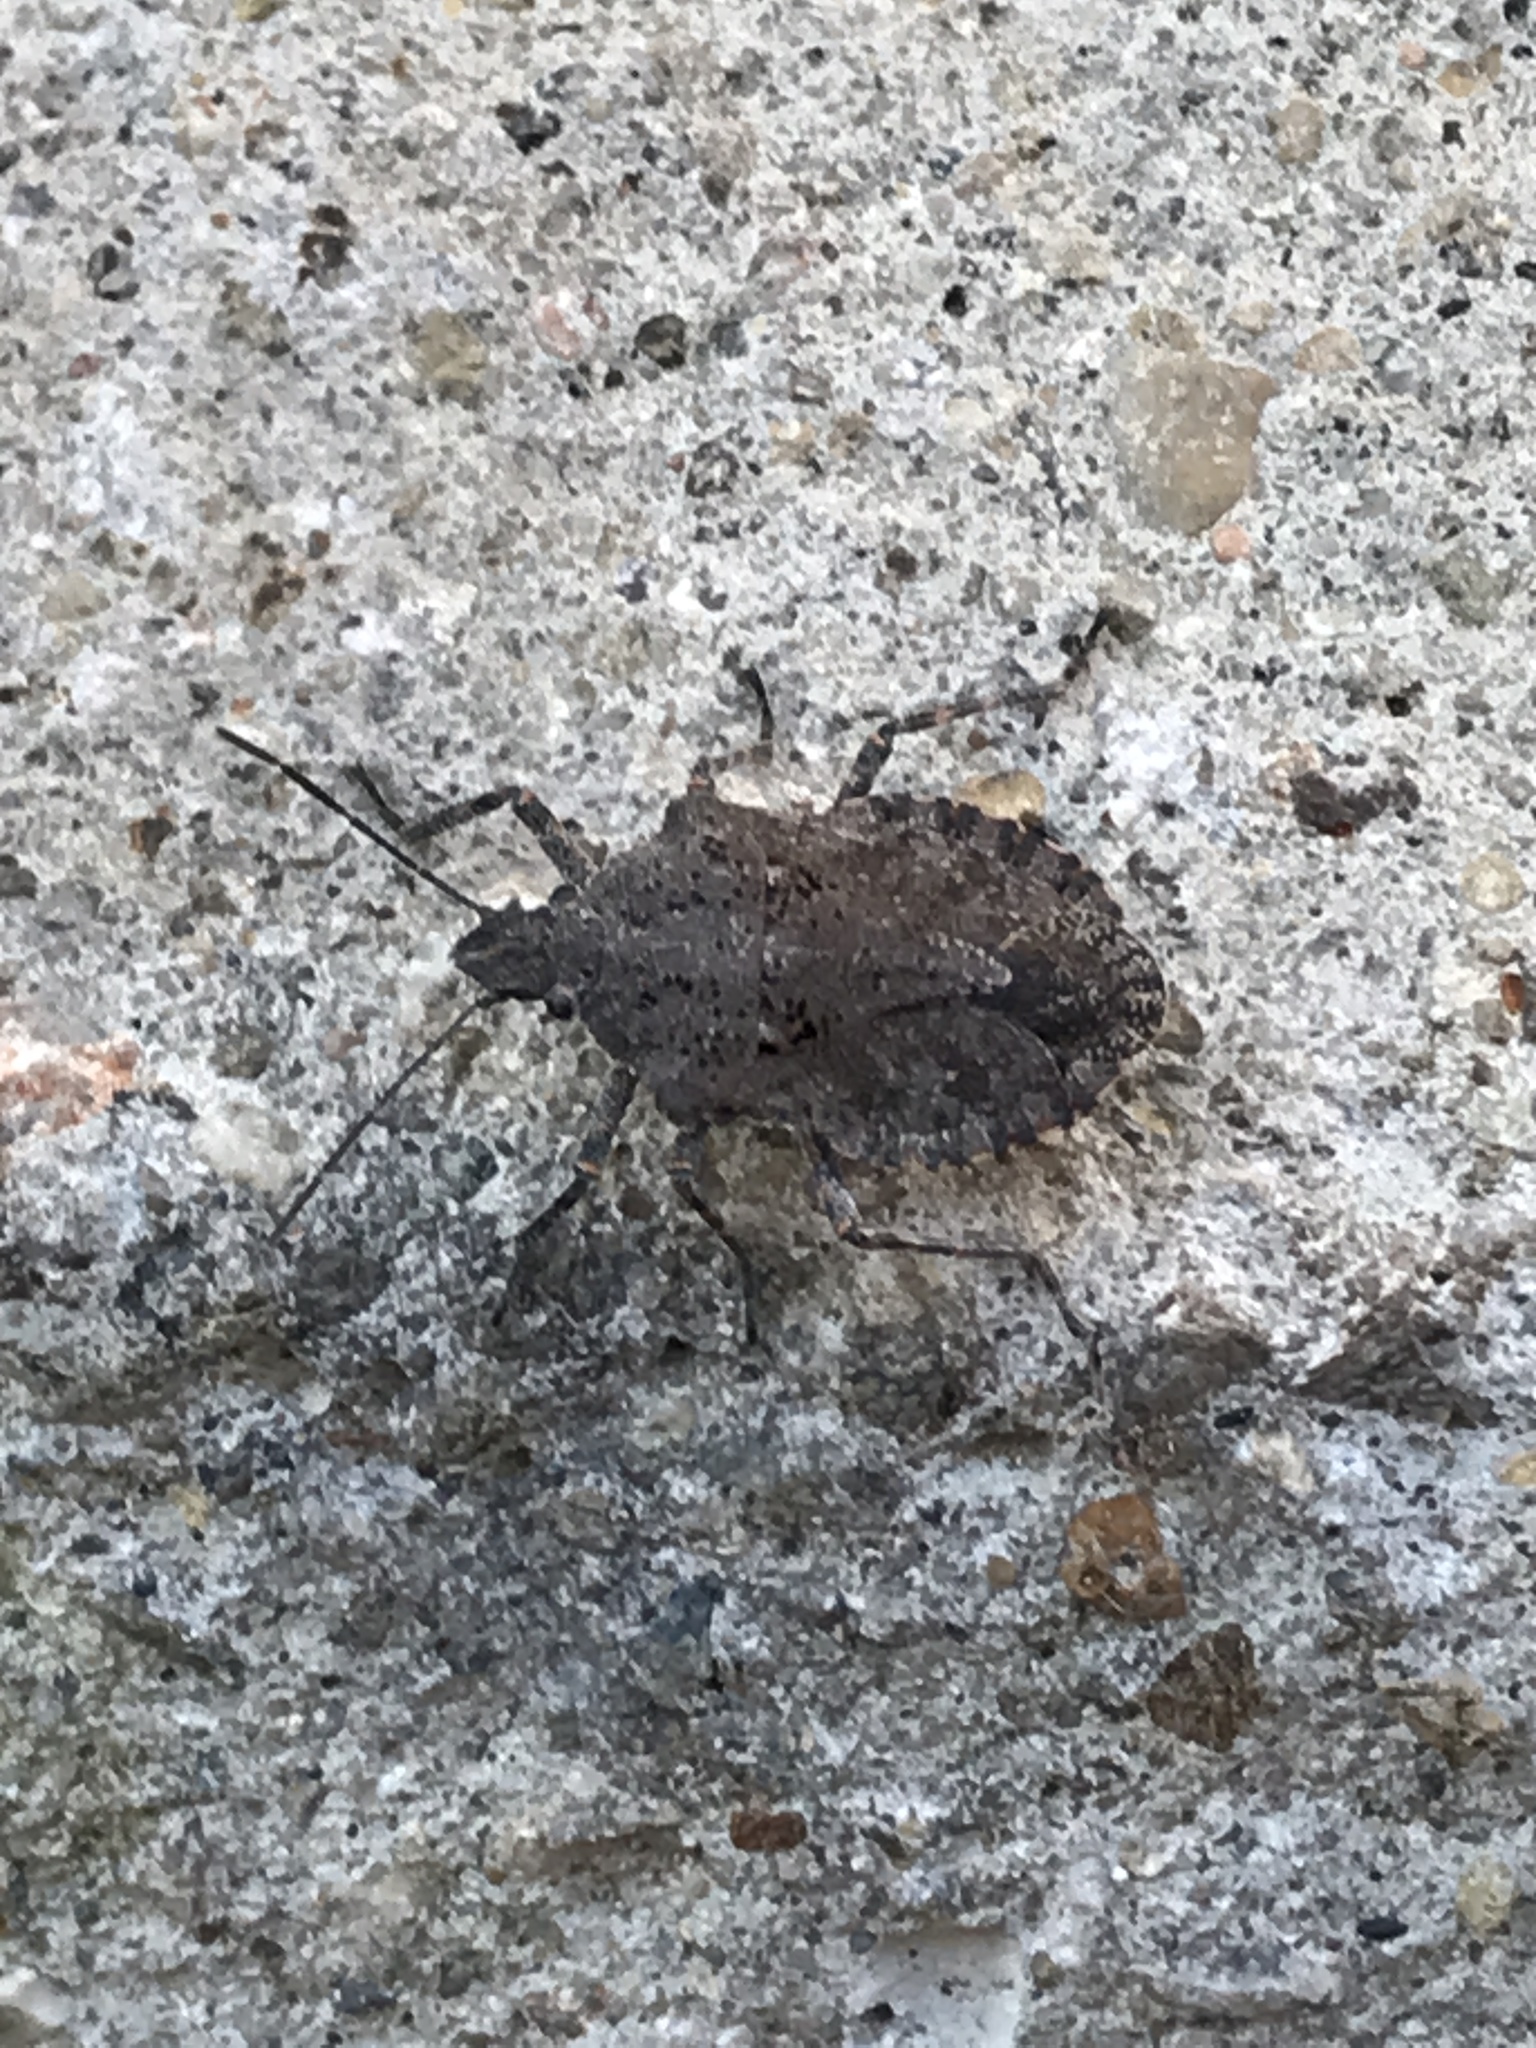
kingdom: Animalia
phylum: Arthropoda
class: Insecta
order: Hemiptera
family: Pentatomidae
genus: Brochymena
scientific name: Brochymena quadripustulata
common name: Four-humped stink bug
